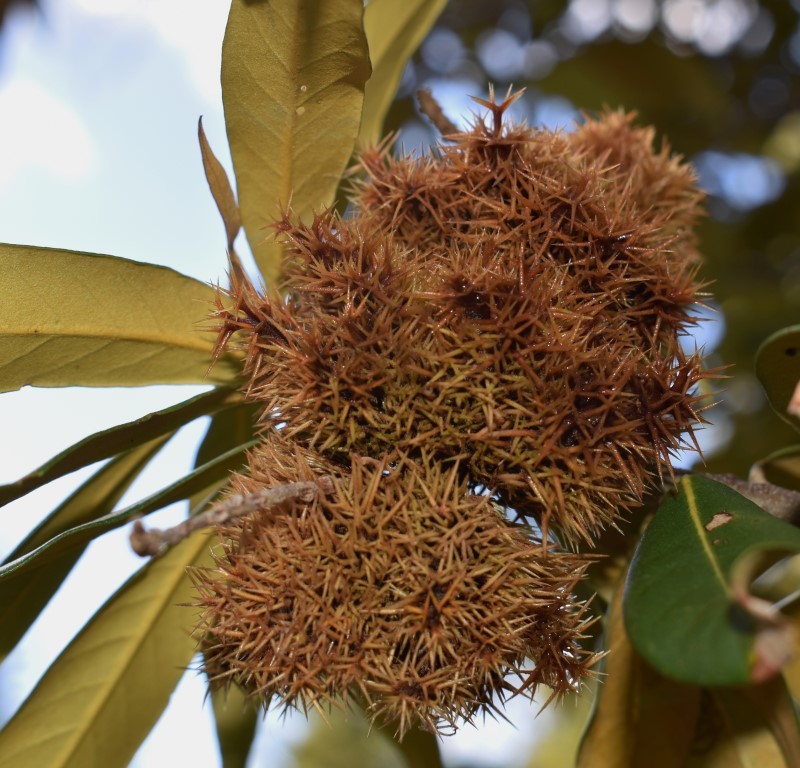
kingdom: Plantae
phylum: Tracheophyta
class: Magnoliopsida
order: Fagales
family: Fagaceae
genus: Chrysolepis
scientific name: Chrysolepis chrysophylla
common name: Giant chinquapin
